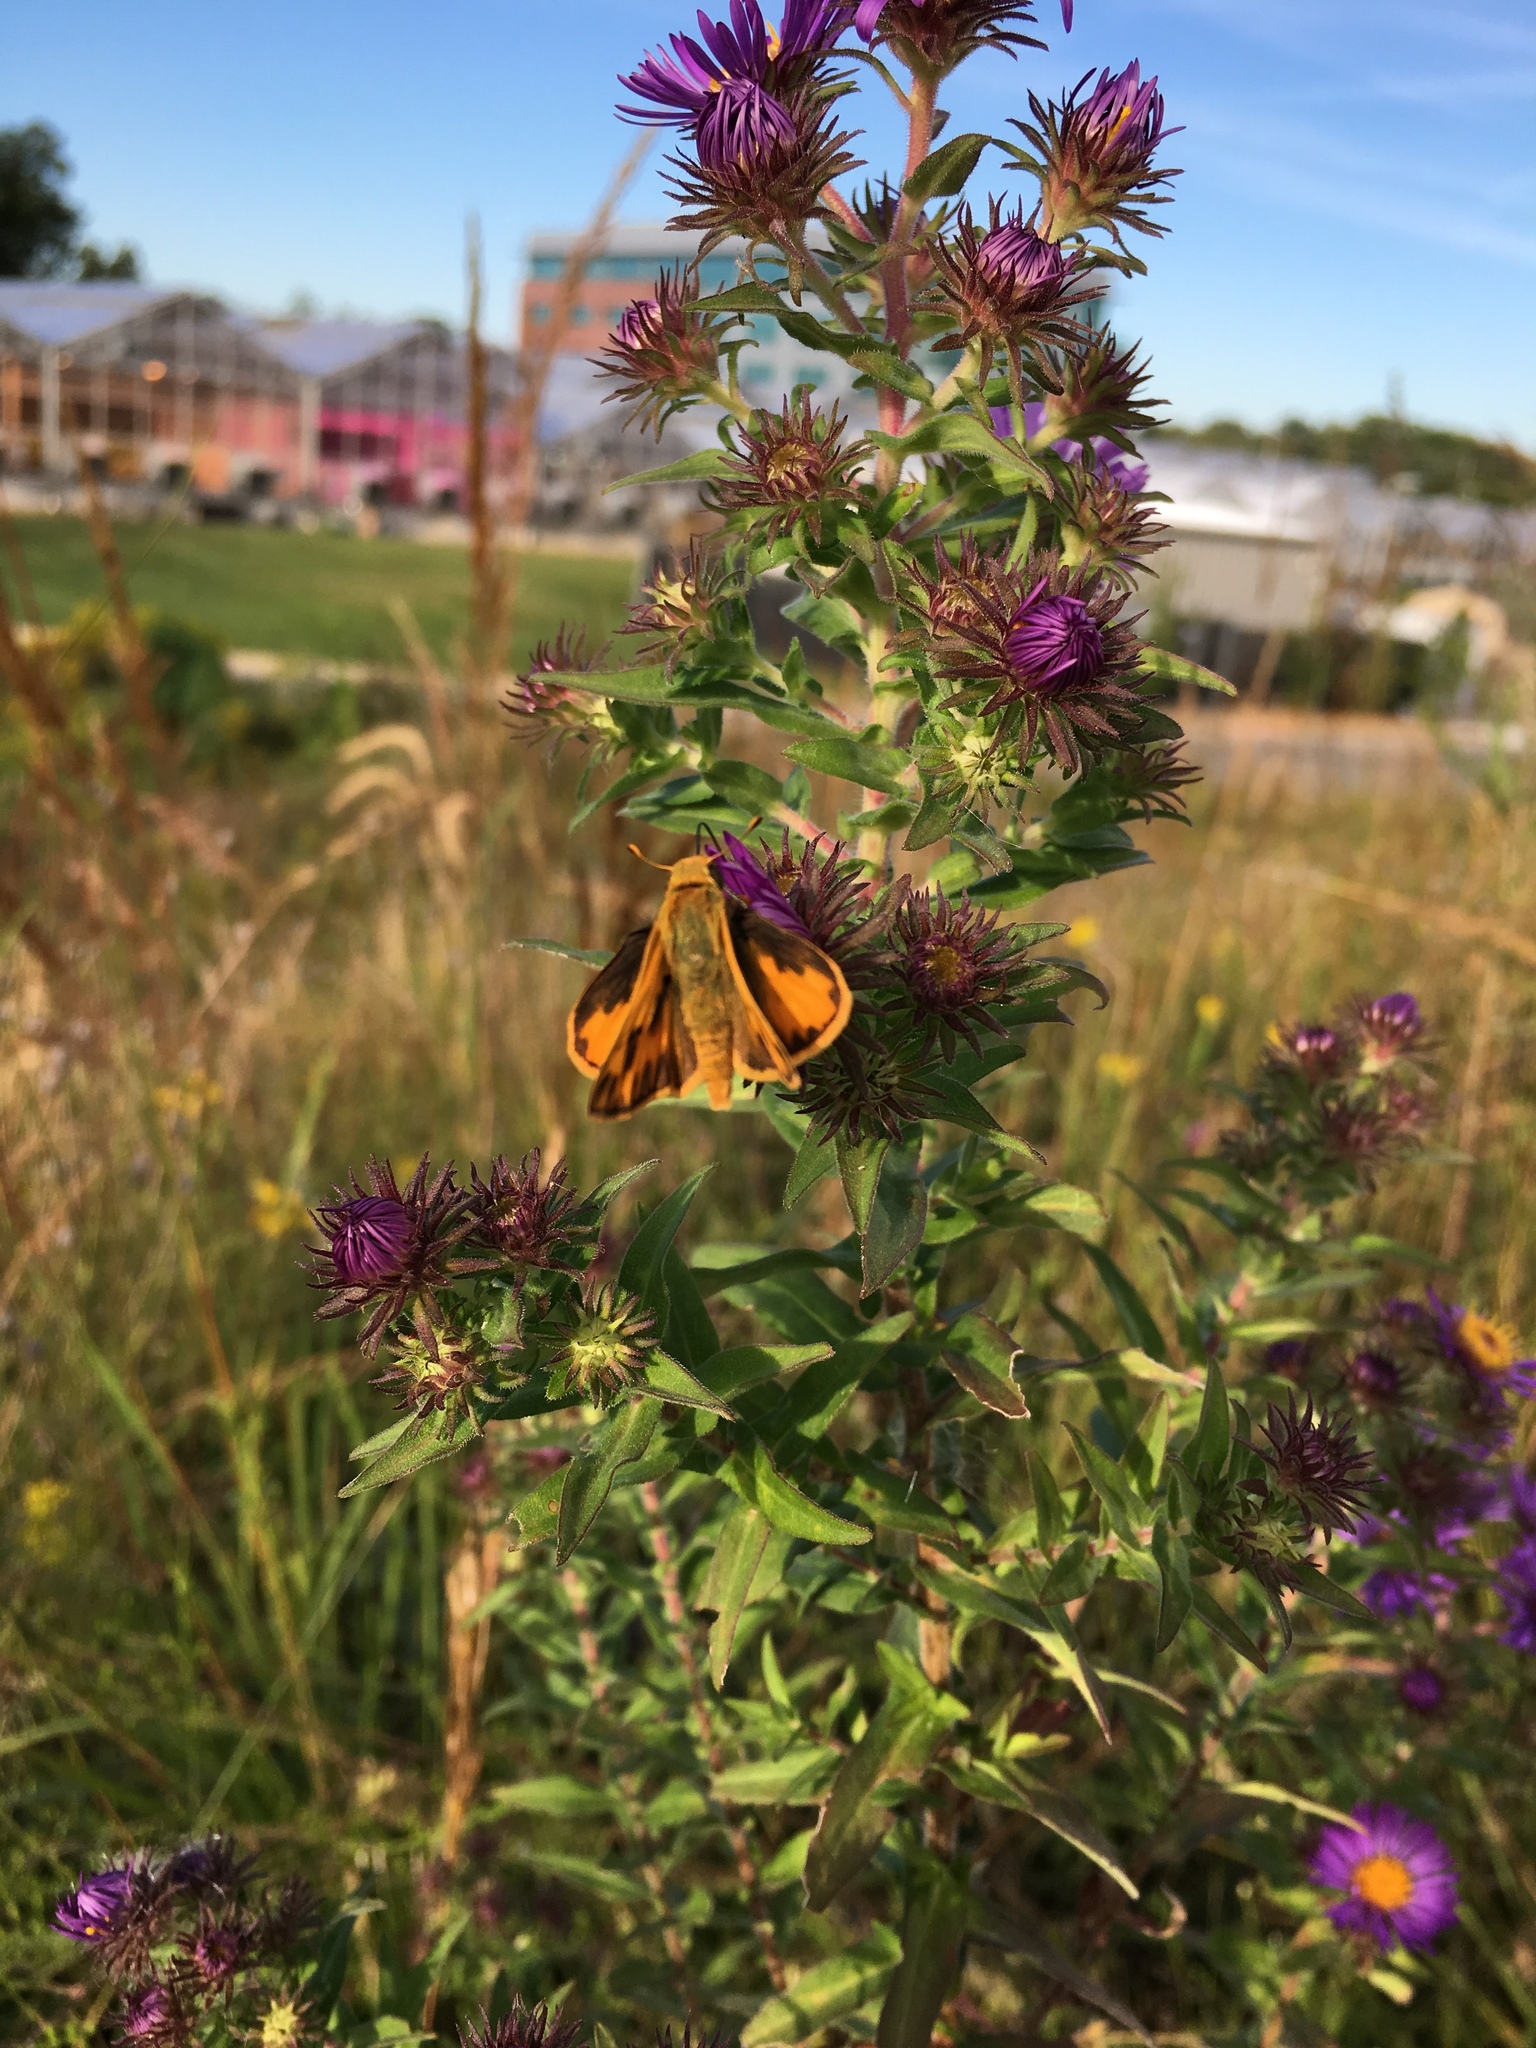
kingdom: Animalia
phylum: Arthropoda
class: Insecta
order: Lepidoptera
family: Hesperiidae
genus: Hylephila
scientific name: Hylephila phyleus
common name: Fiery skipper
